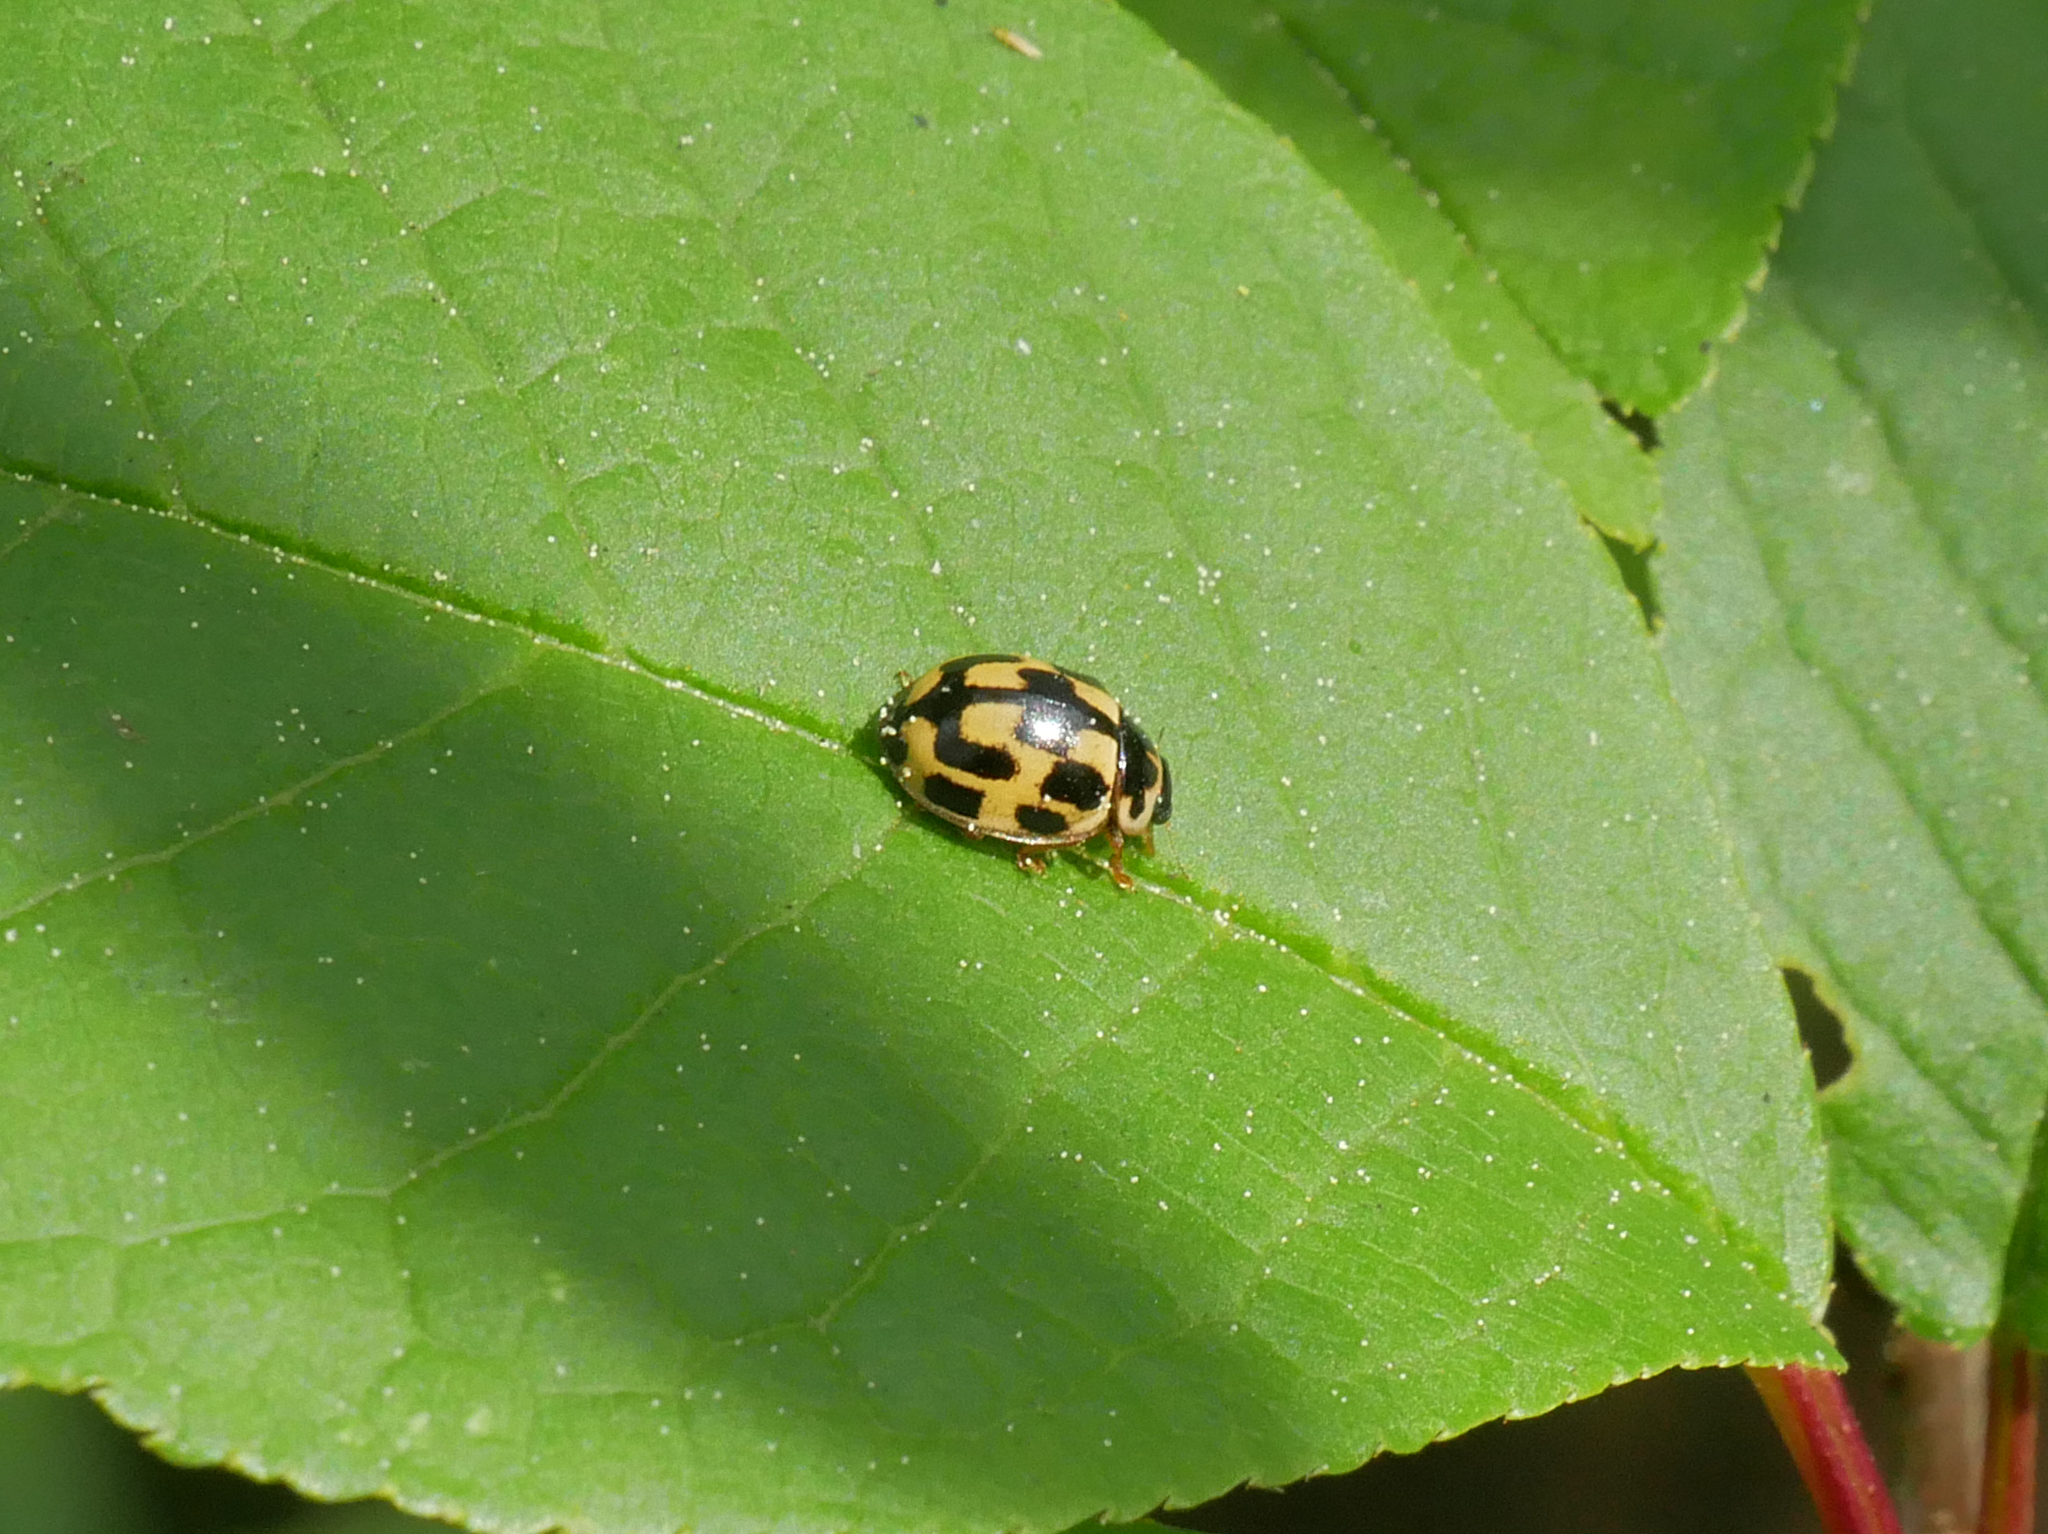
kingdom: Animalia
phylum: Arthropoda
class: Insecta
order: Coleoptera
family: Coccinellidae
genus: Propylaea
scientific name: Propylaea quatuordecimpunctata
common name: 14-spotted ladybird beetle
